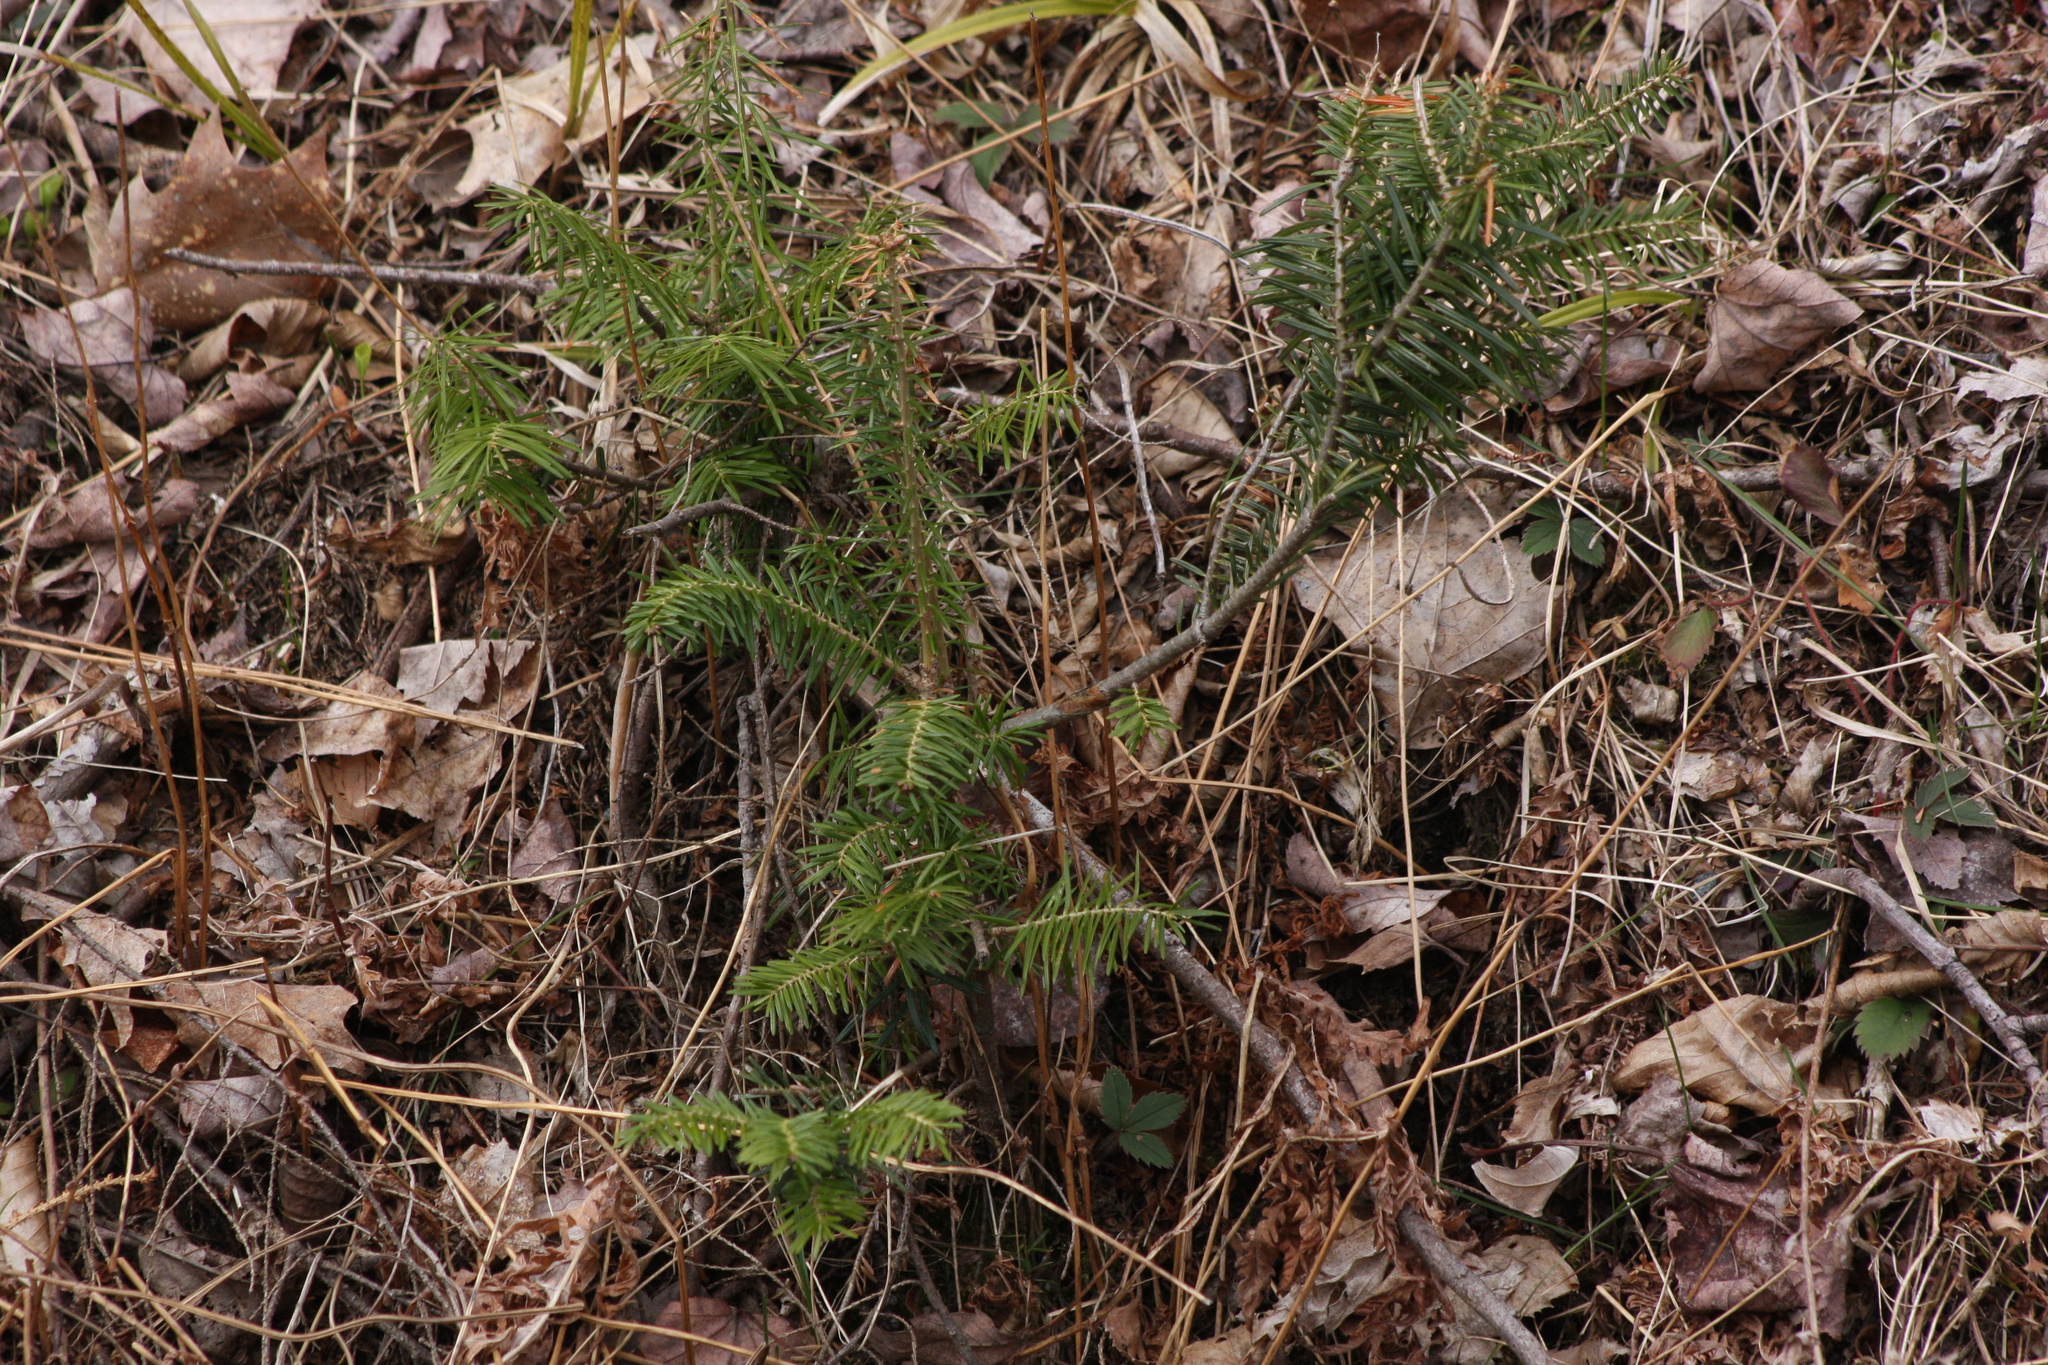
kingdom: Plantae
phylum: Tracheophyta
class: Pinopsida
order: Pinales
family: Pinaceae
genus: Abies
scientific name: Abies balsamea
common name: Balsam fir
